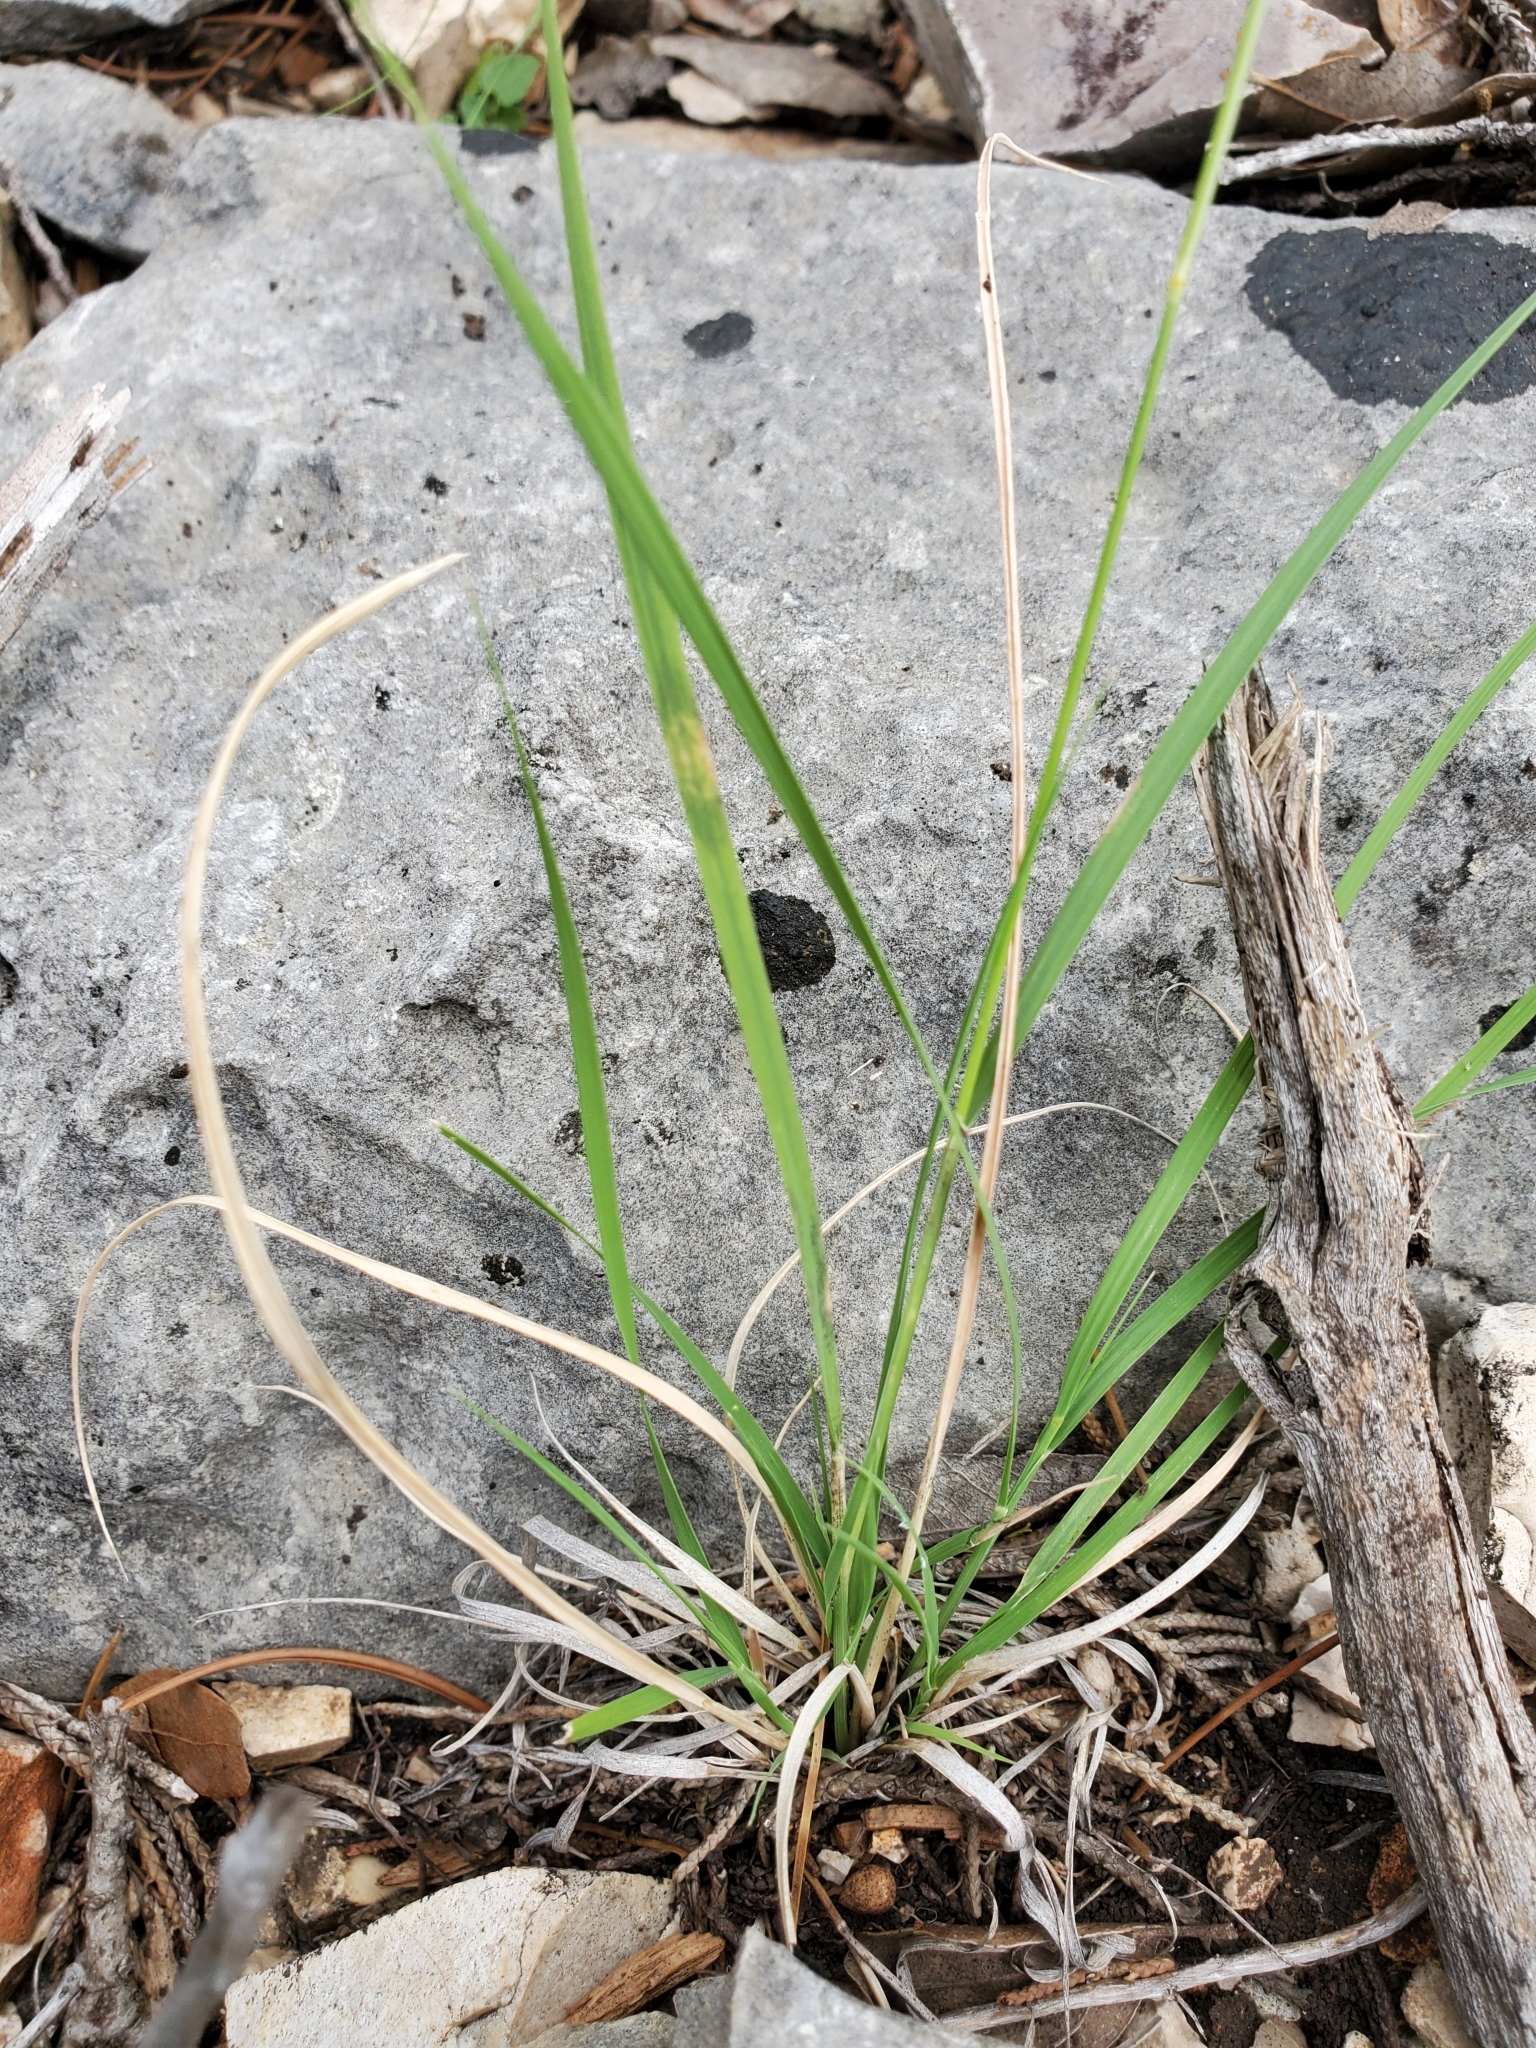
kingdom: Plantae
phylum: Tracheophyta
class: Liliopsida
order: Poales
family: Poaceae
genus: Bouteloua
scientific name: Bouteloua uniflora
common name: Neally's grama
